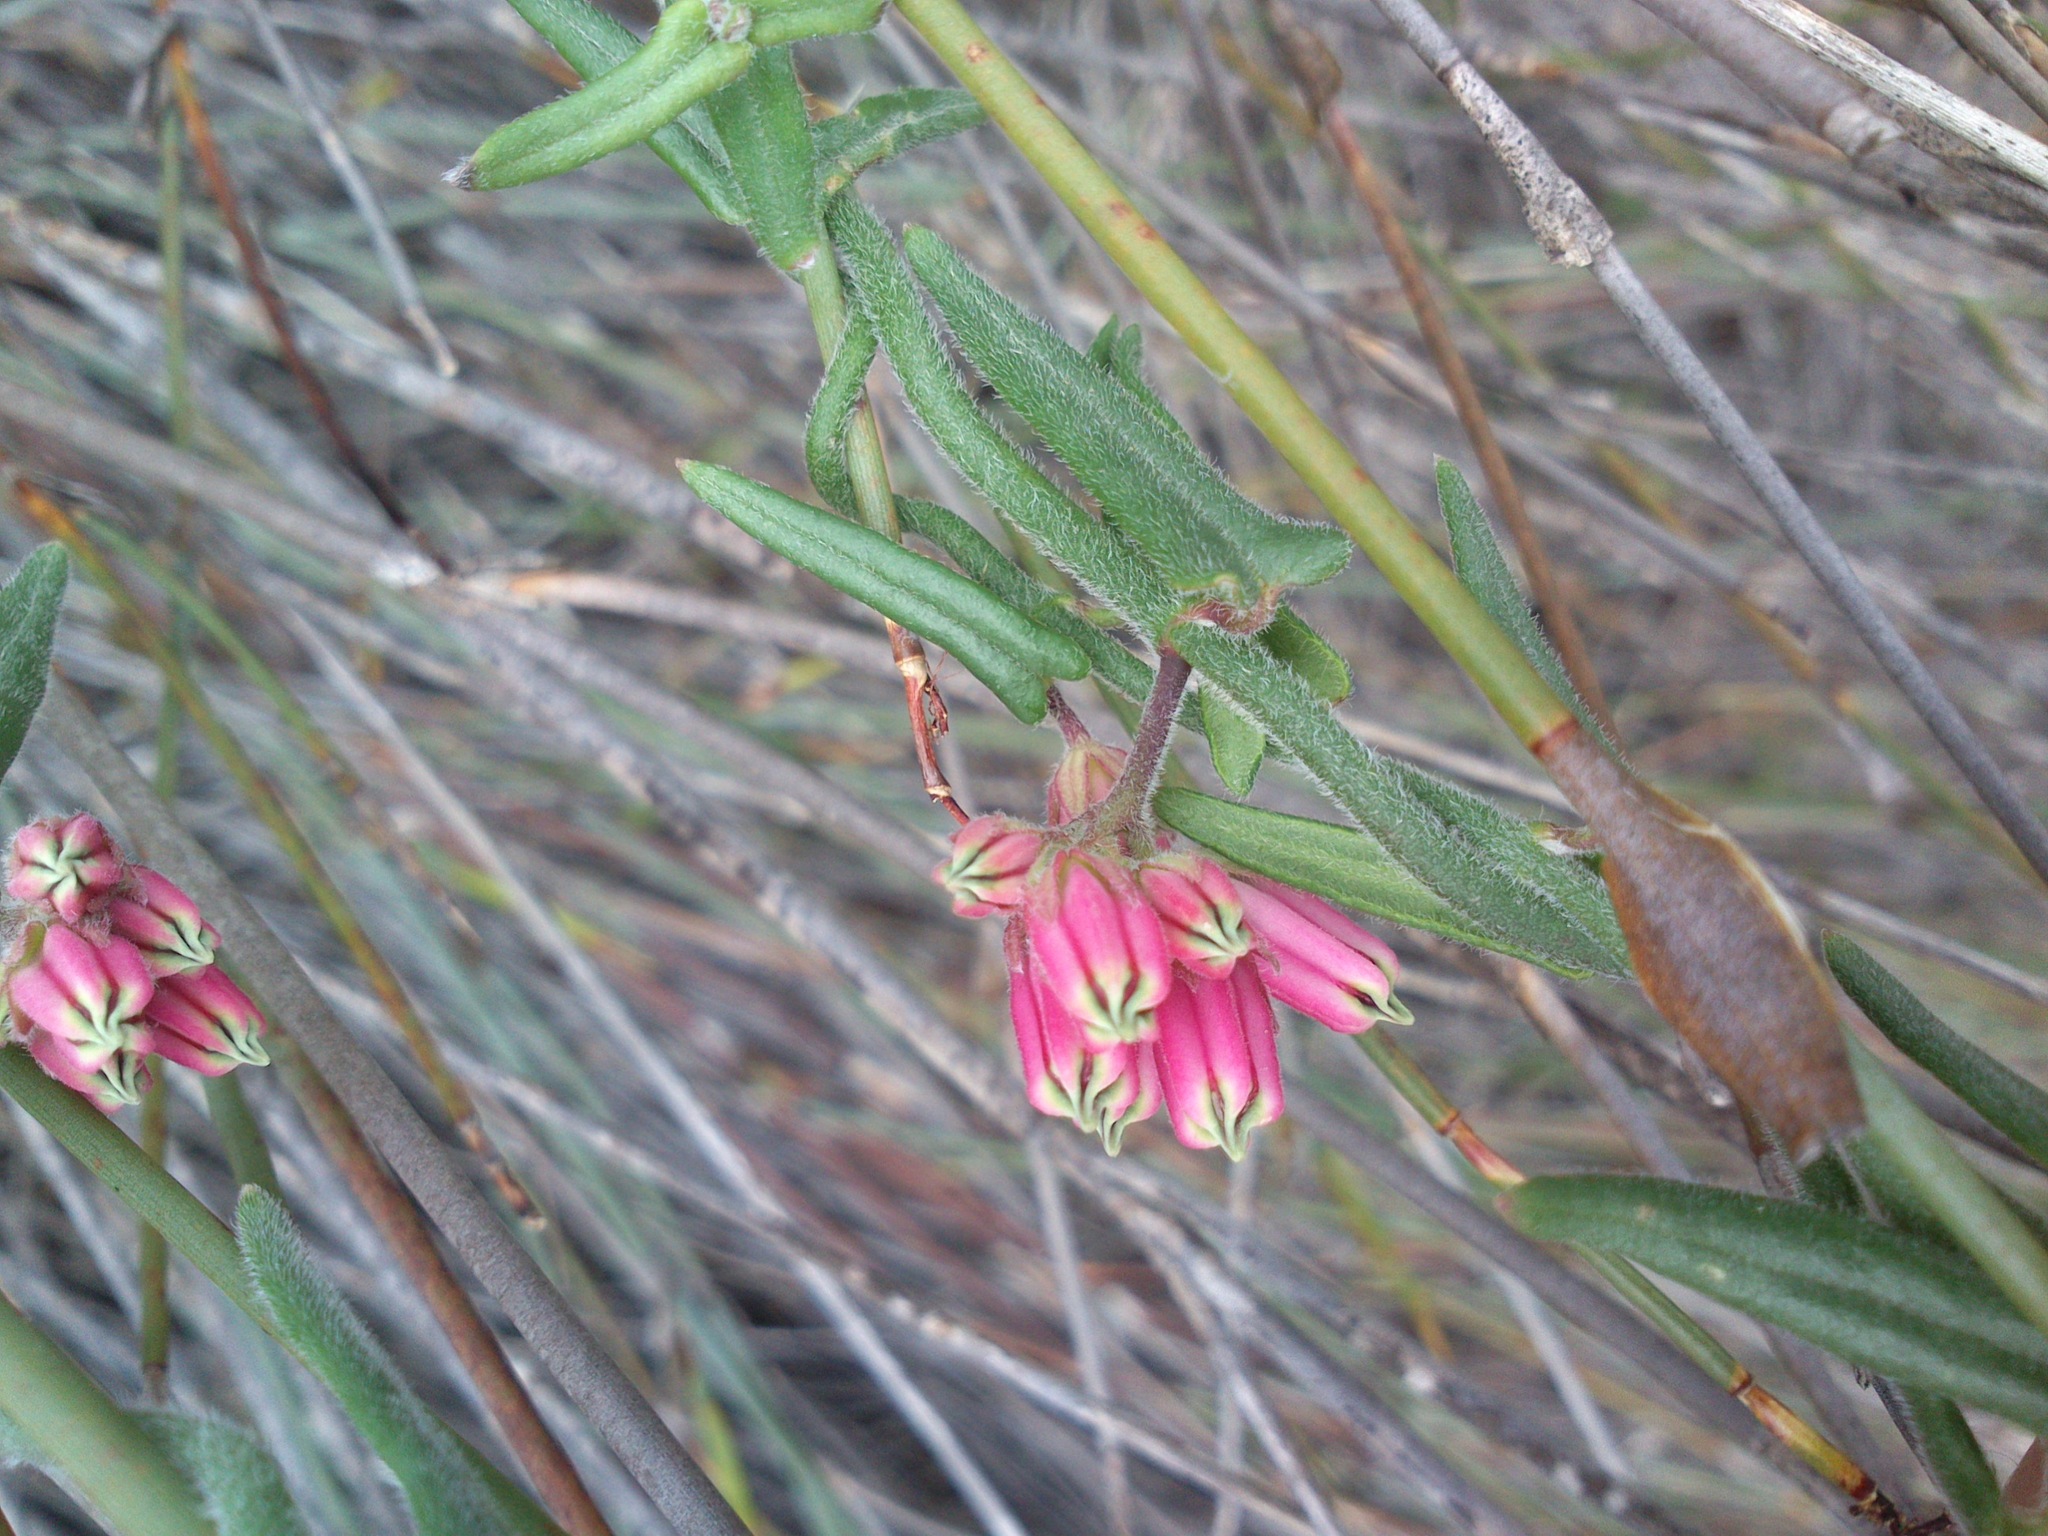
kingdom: Plantae
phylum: Tracheophyta
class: Magnoliopsida
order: Gentianales
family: Apocynaceae
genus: Microloma
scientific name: Microloma sagittatum
